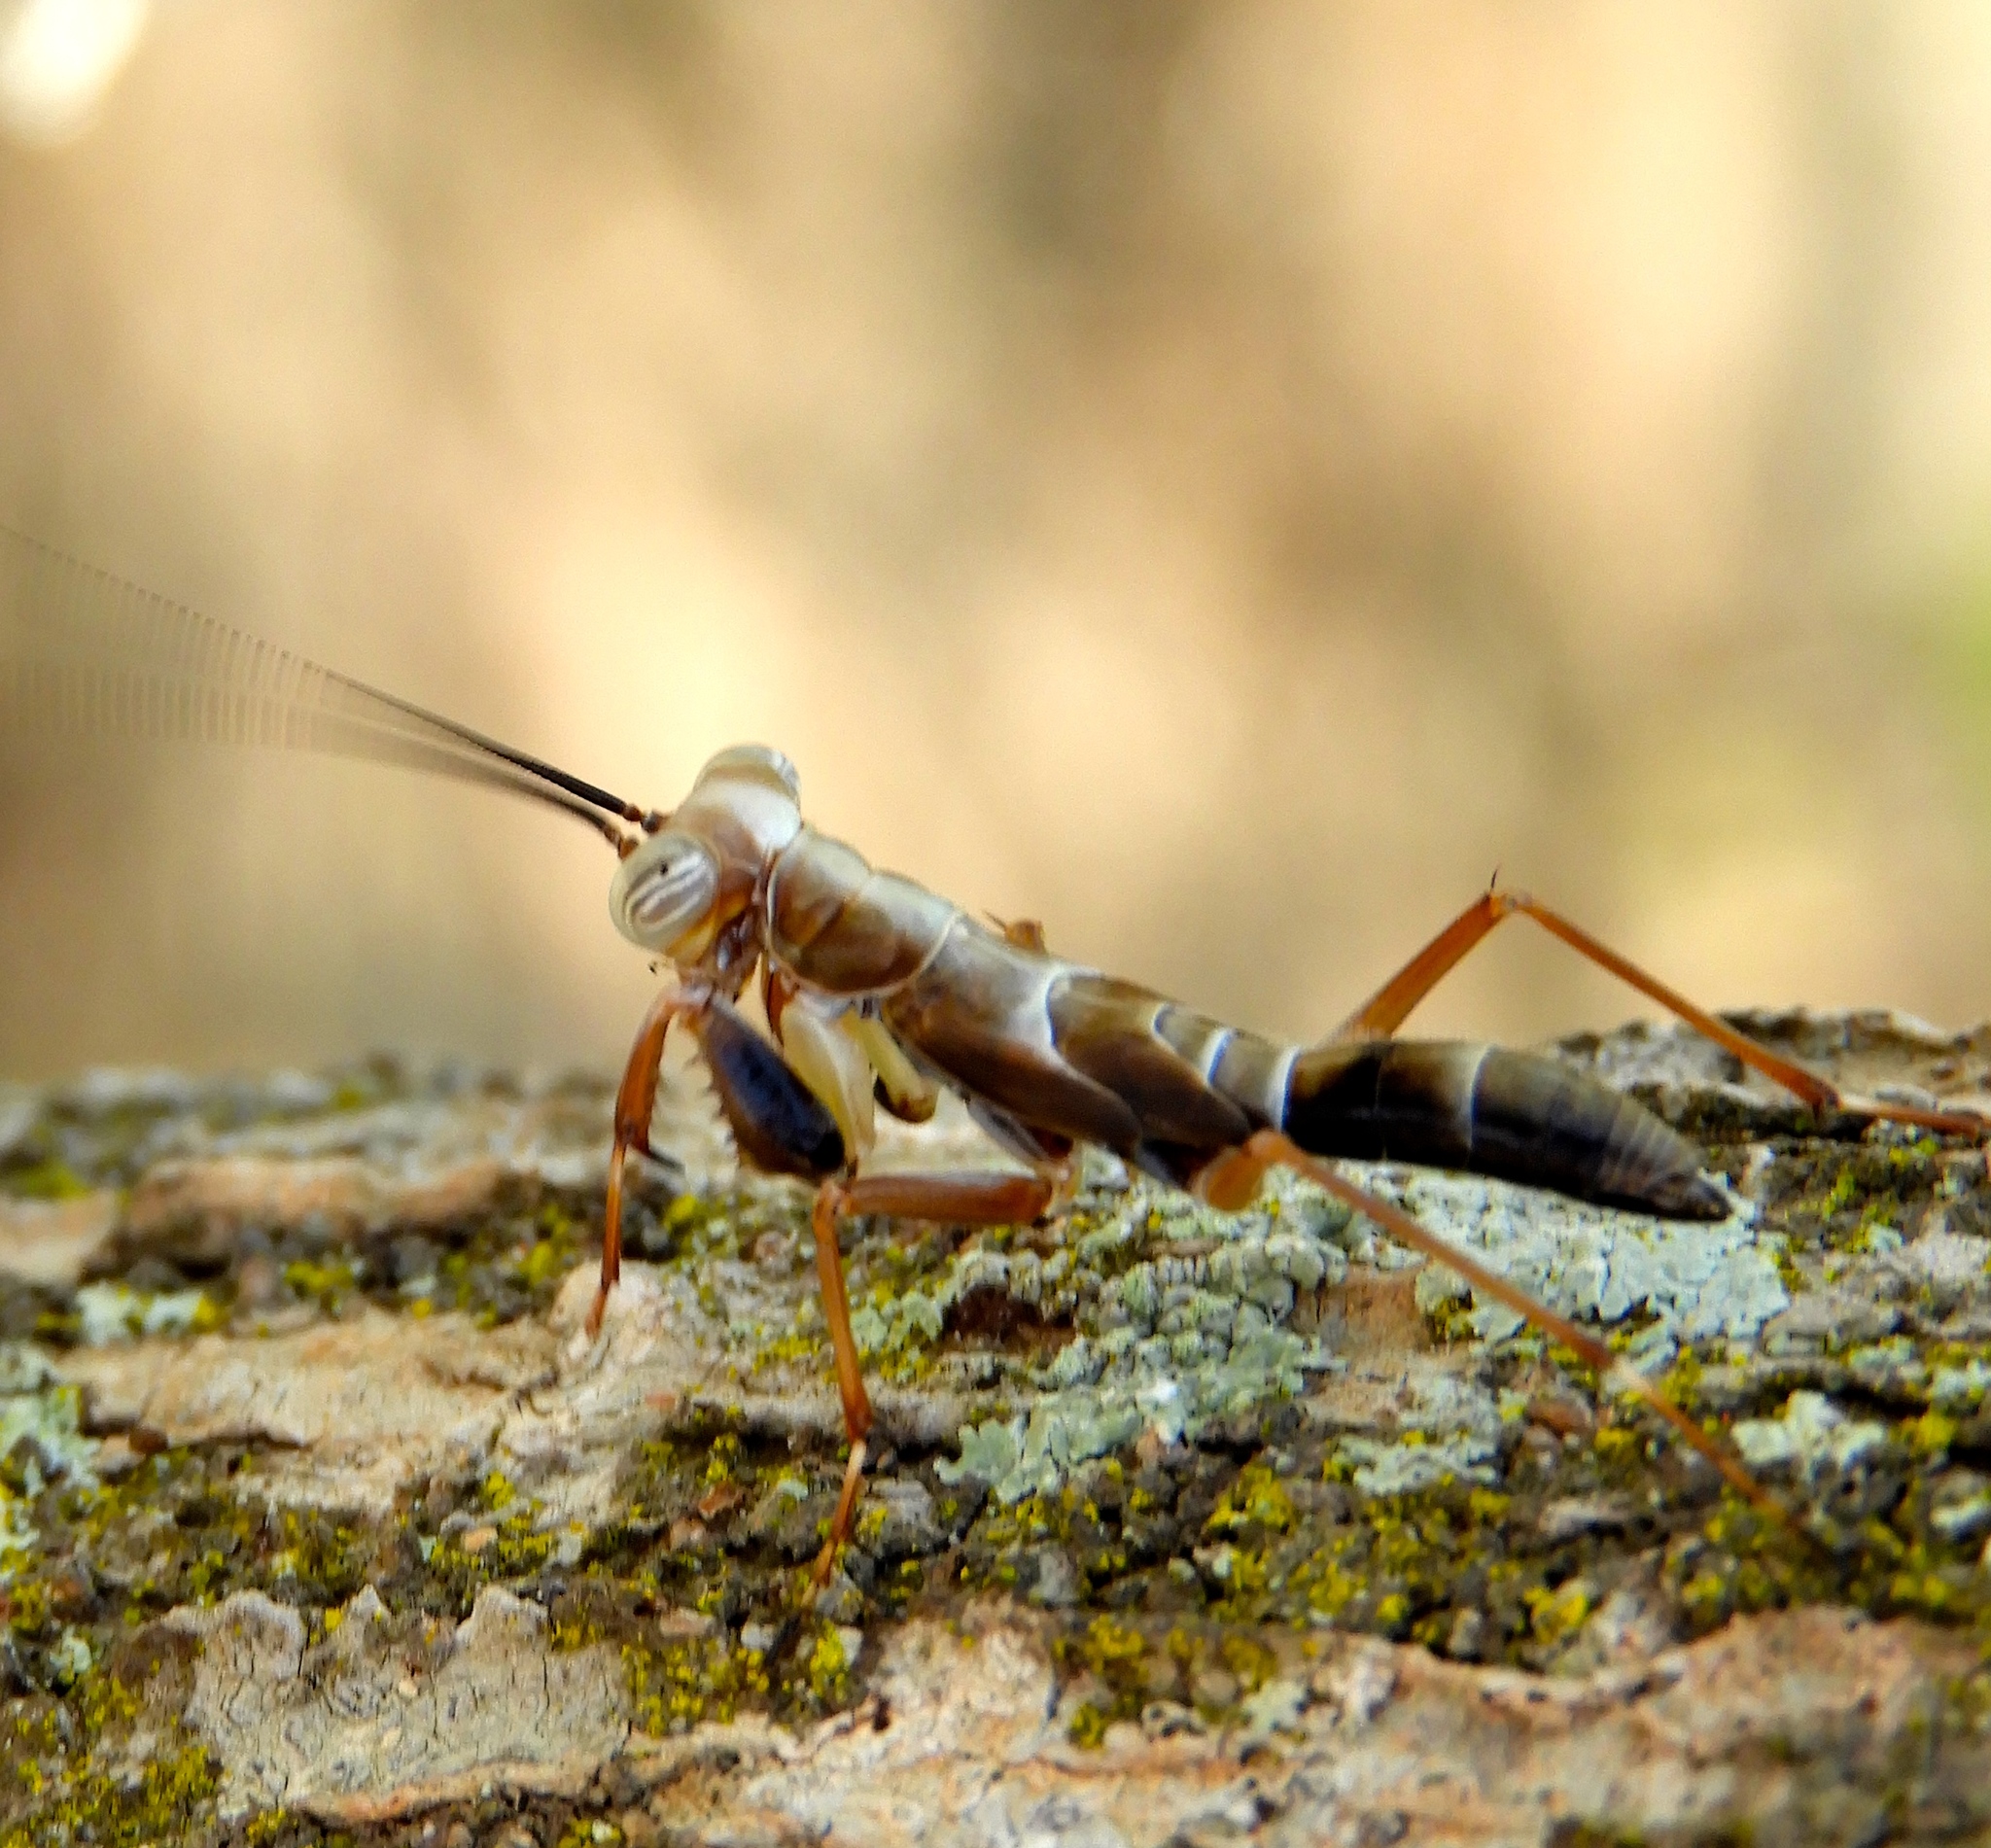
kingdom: Animalia
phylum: Arthropoda
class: Insecta
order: Mantodea
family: Mantoididae
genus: Mantoida
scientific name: Mantoida maya
